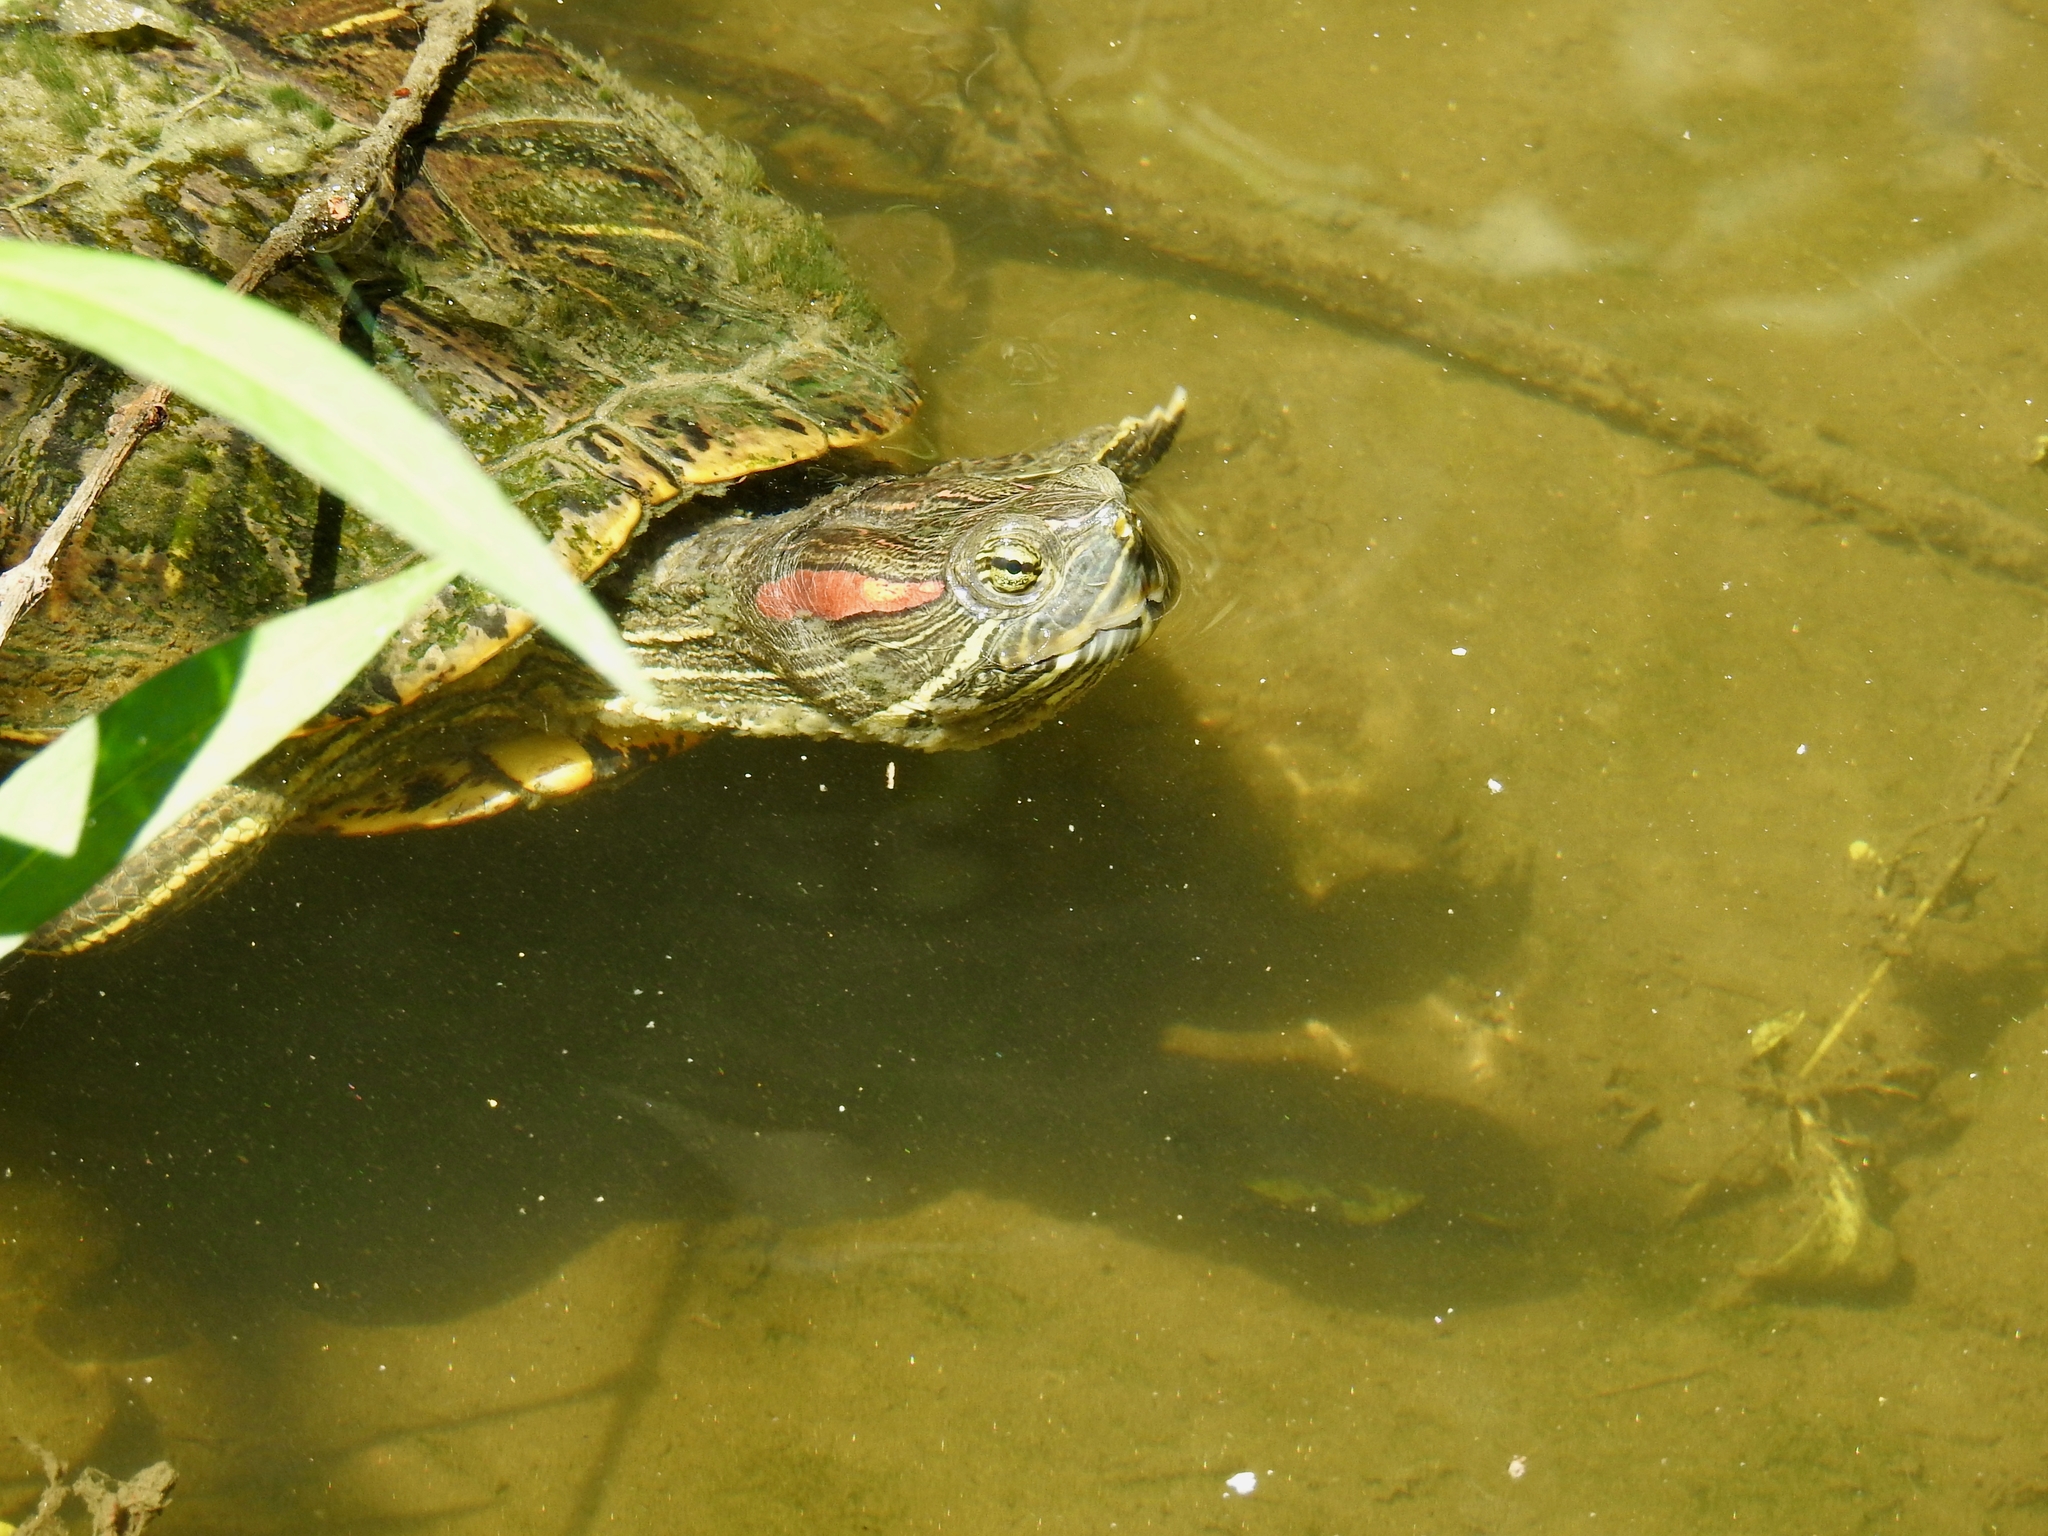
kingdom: Animalia
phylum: Chordata
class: Testudines
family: Emydidae
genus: Trachemys
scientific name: Trachemys scripta
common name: Slider
